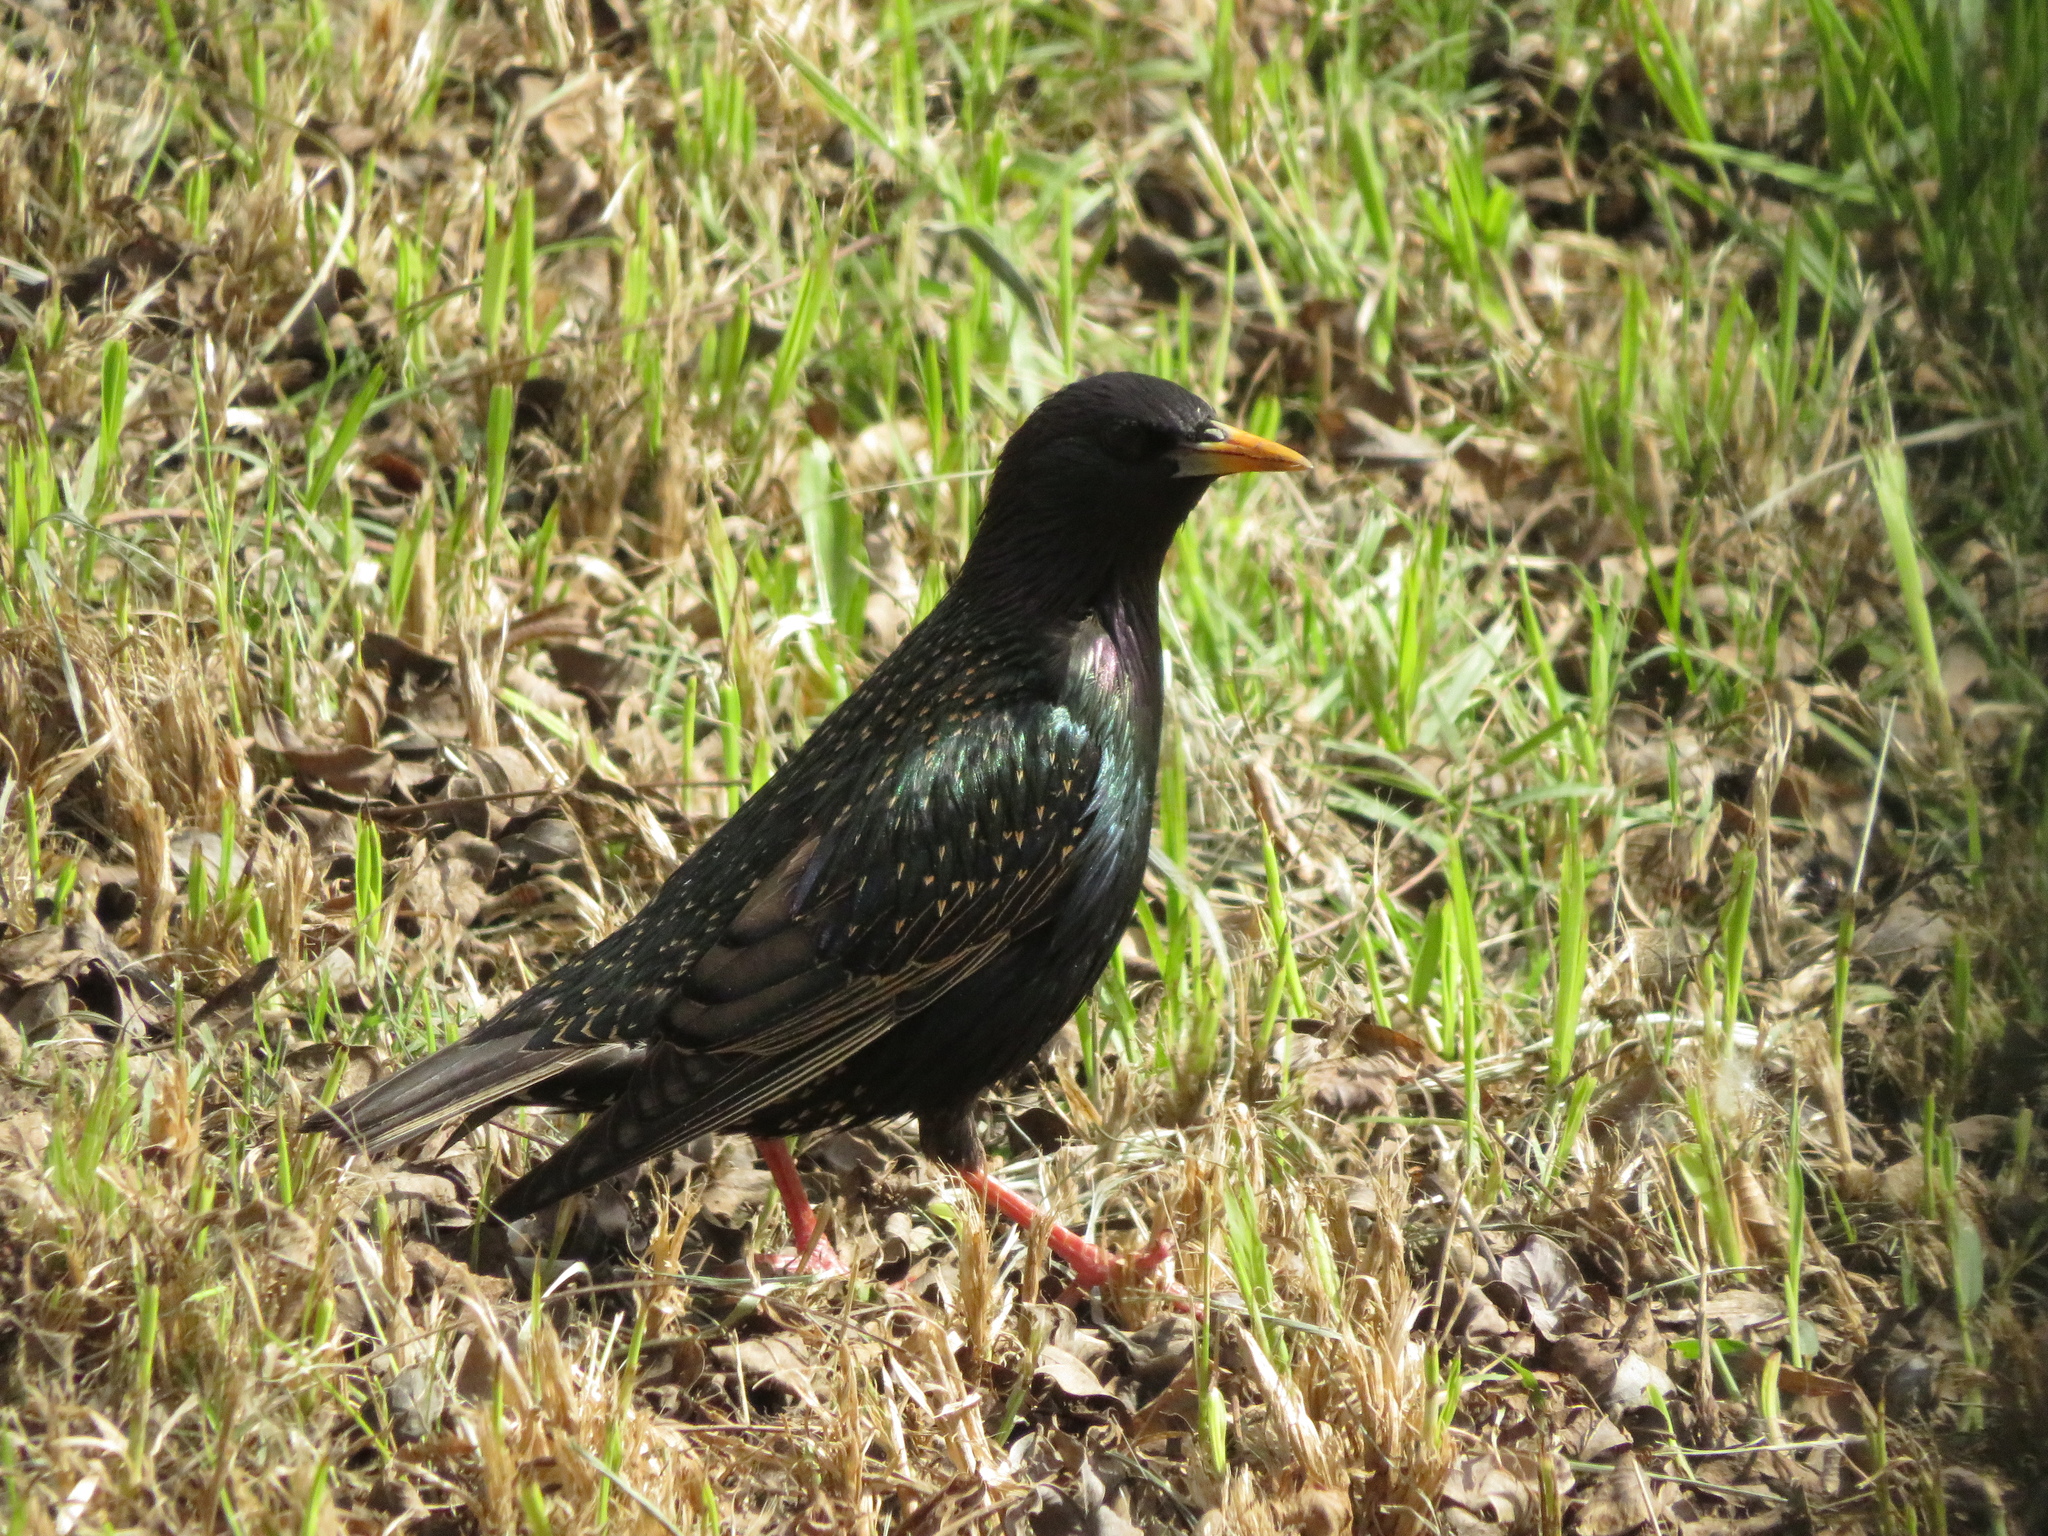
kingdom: Animalia
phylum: Chordata
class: Aves
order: Passeriformes
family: Sturnidae
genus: Sturnus
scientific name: Sturnus vulgaris
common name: Common starling
